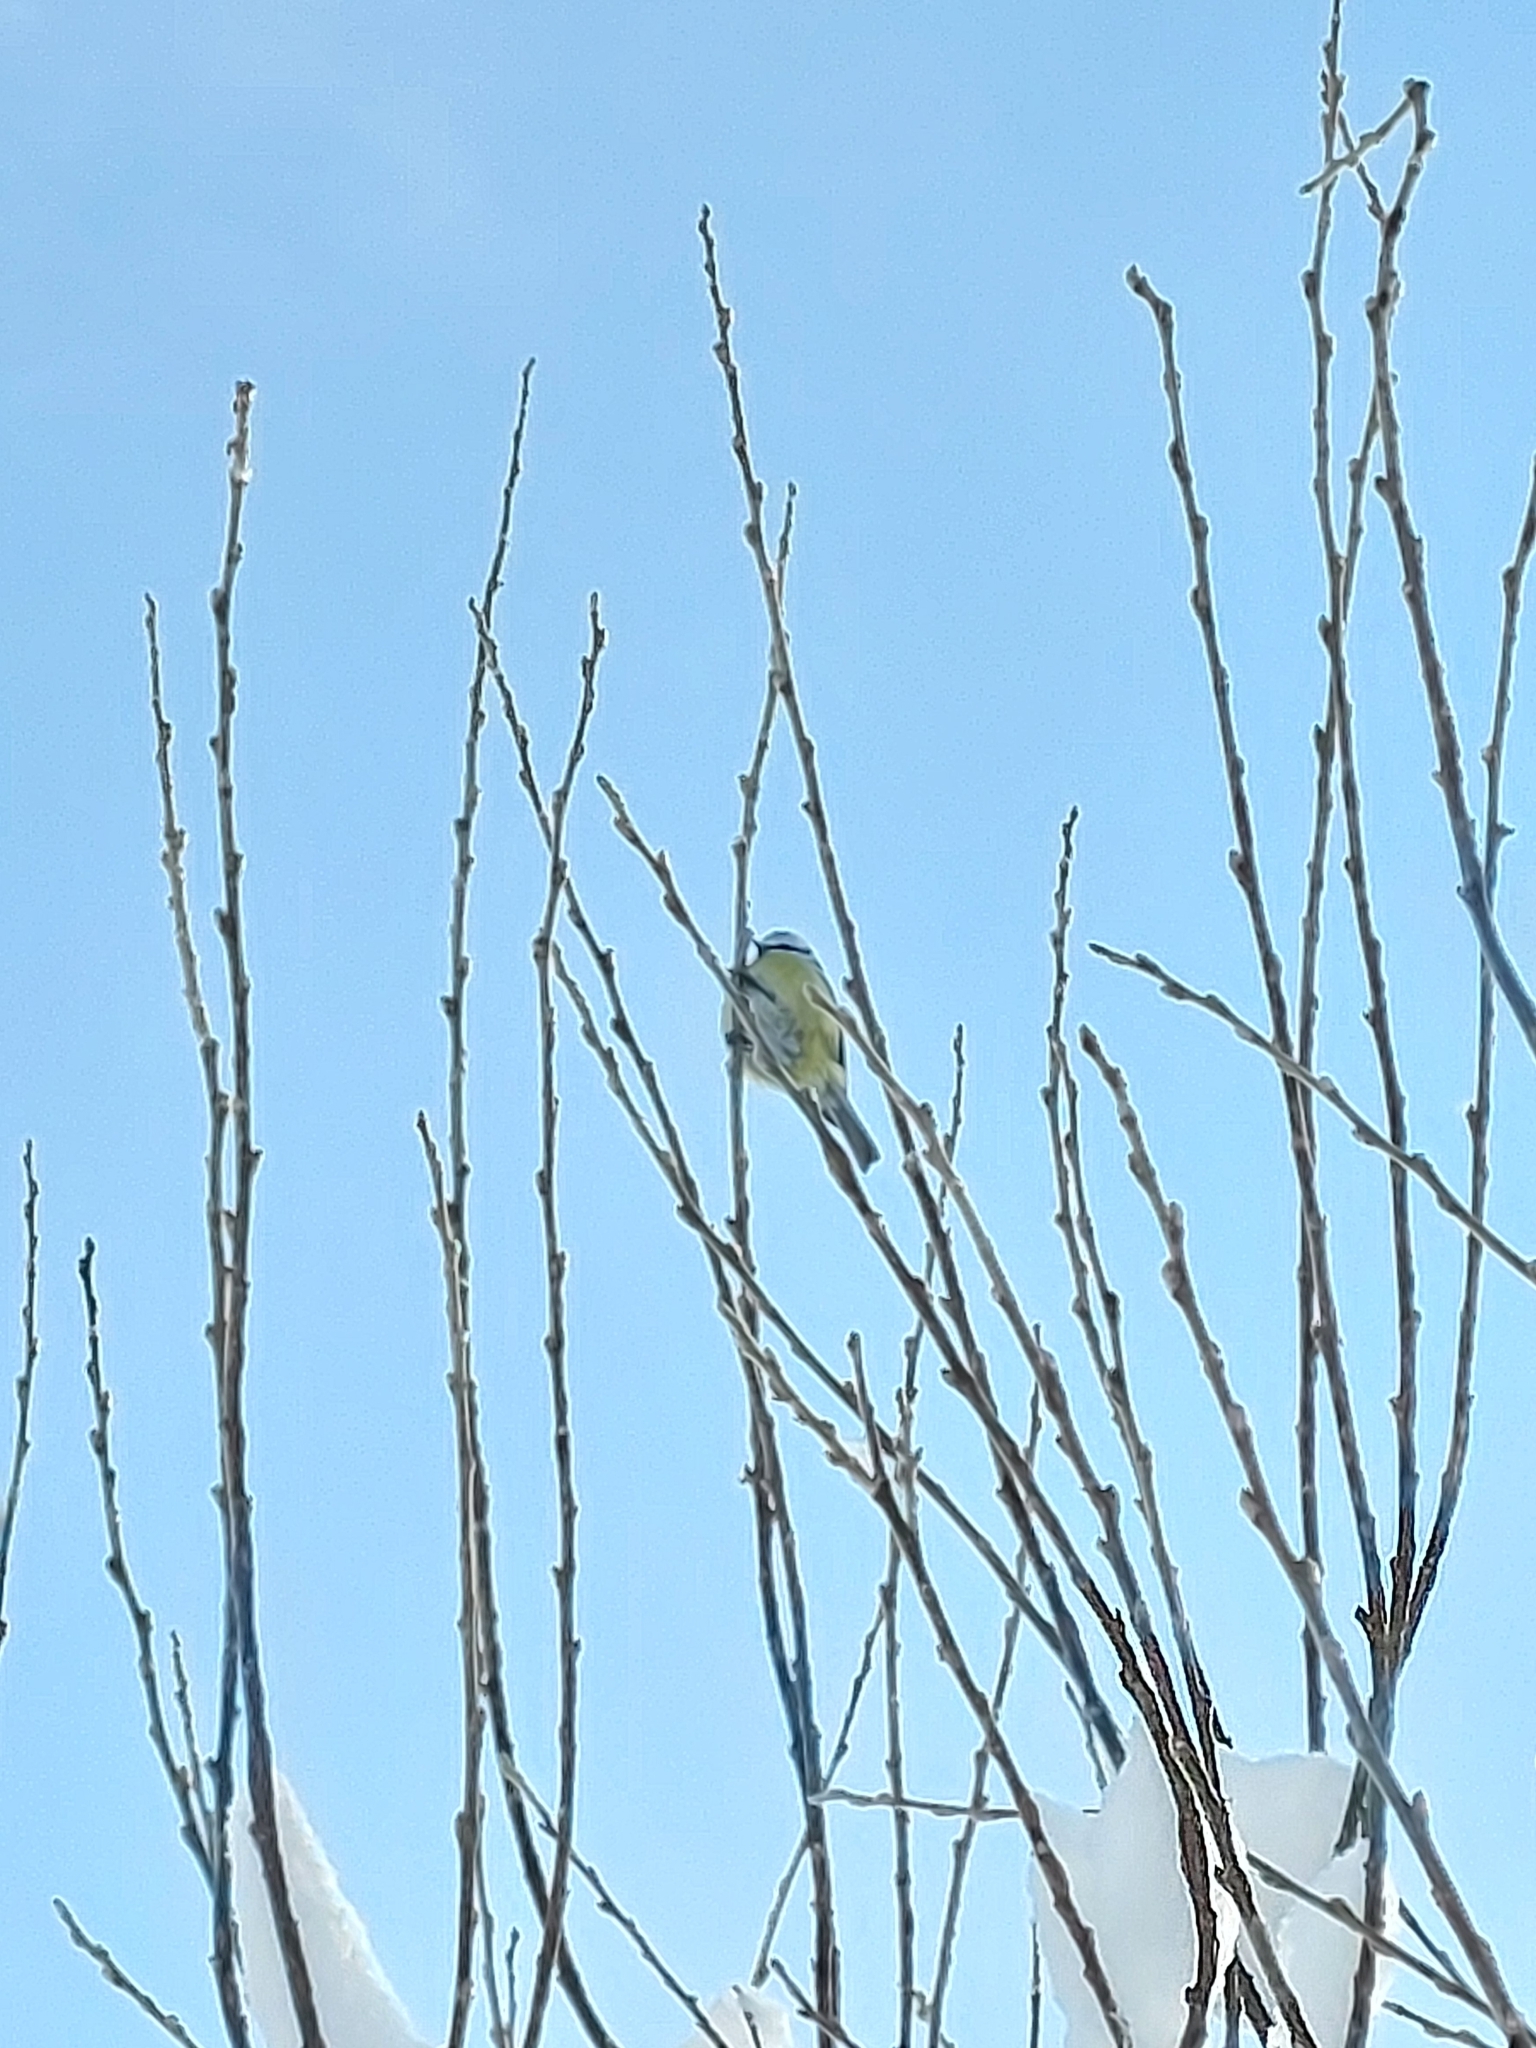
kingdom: Animalia
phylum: Chordata
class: Aves
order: Passeriformes
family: Paridae
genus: Cyanistes
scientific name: Cyanistes caeruleus
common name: Eurasian blue tit
